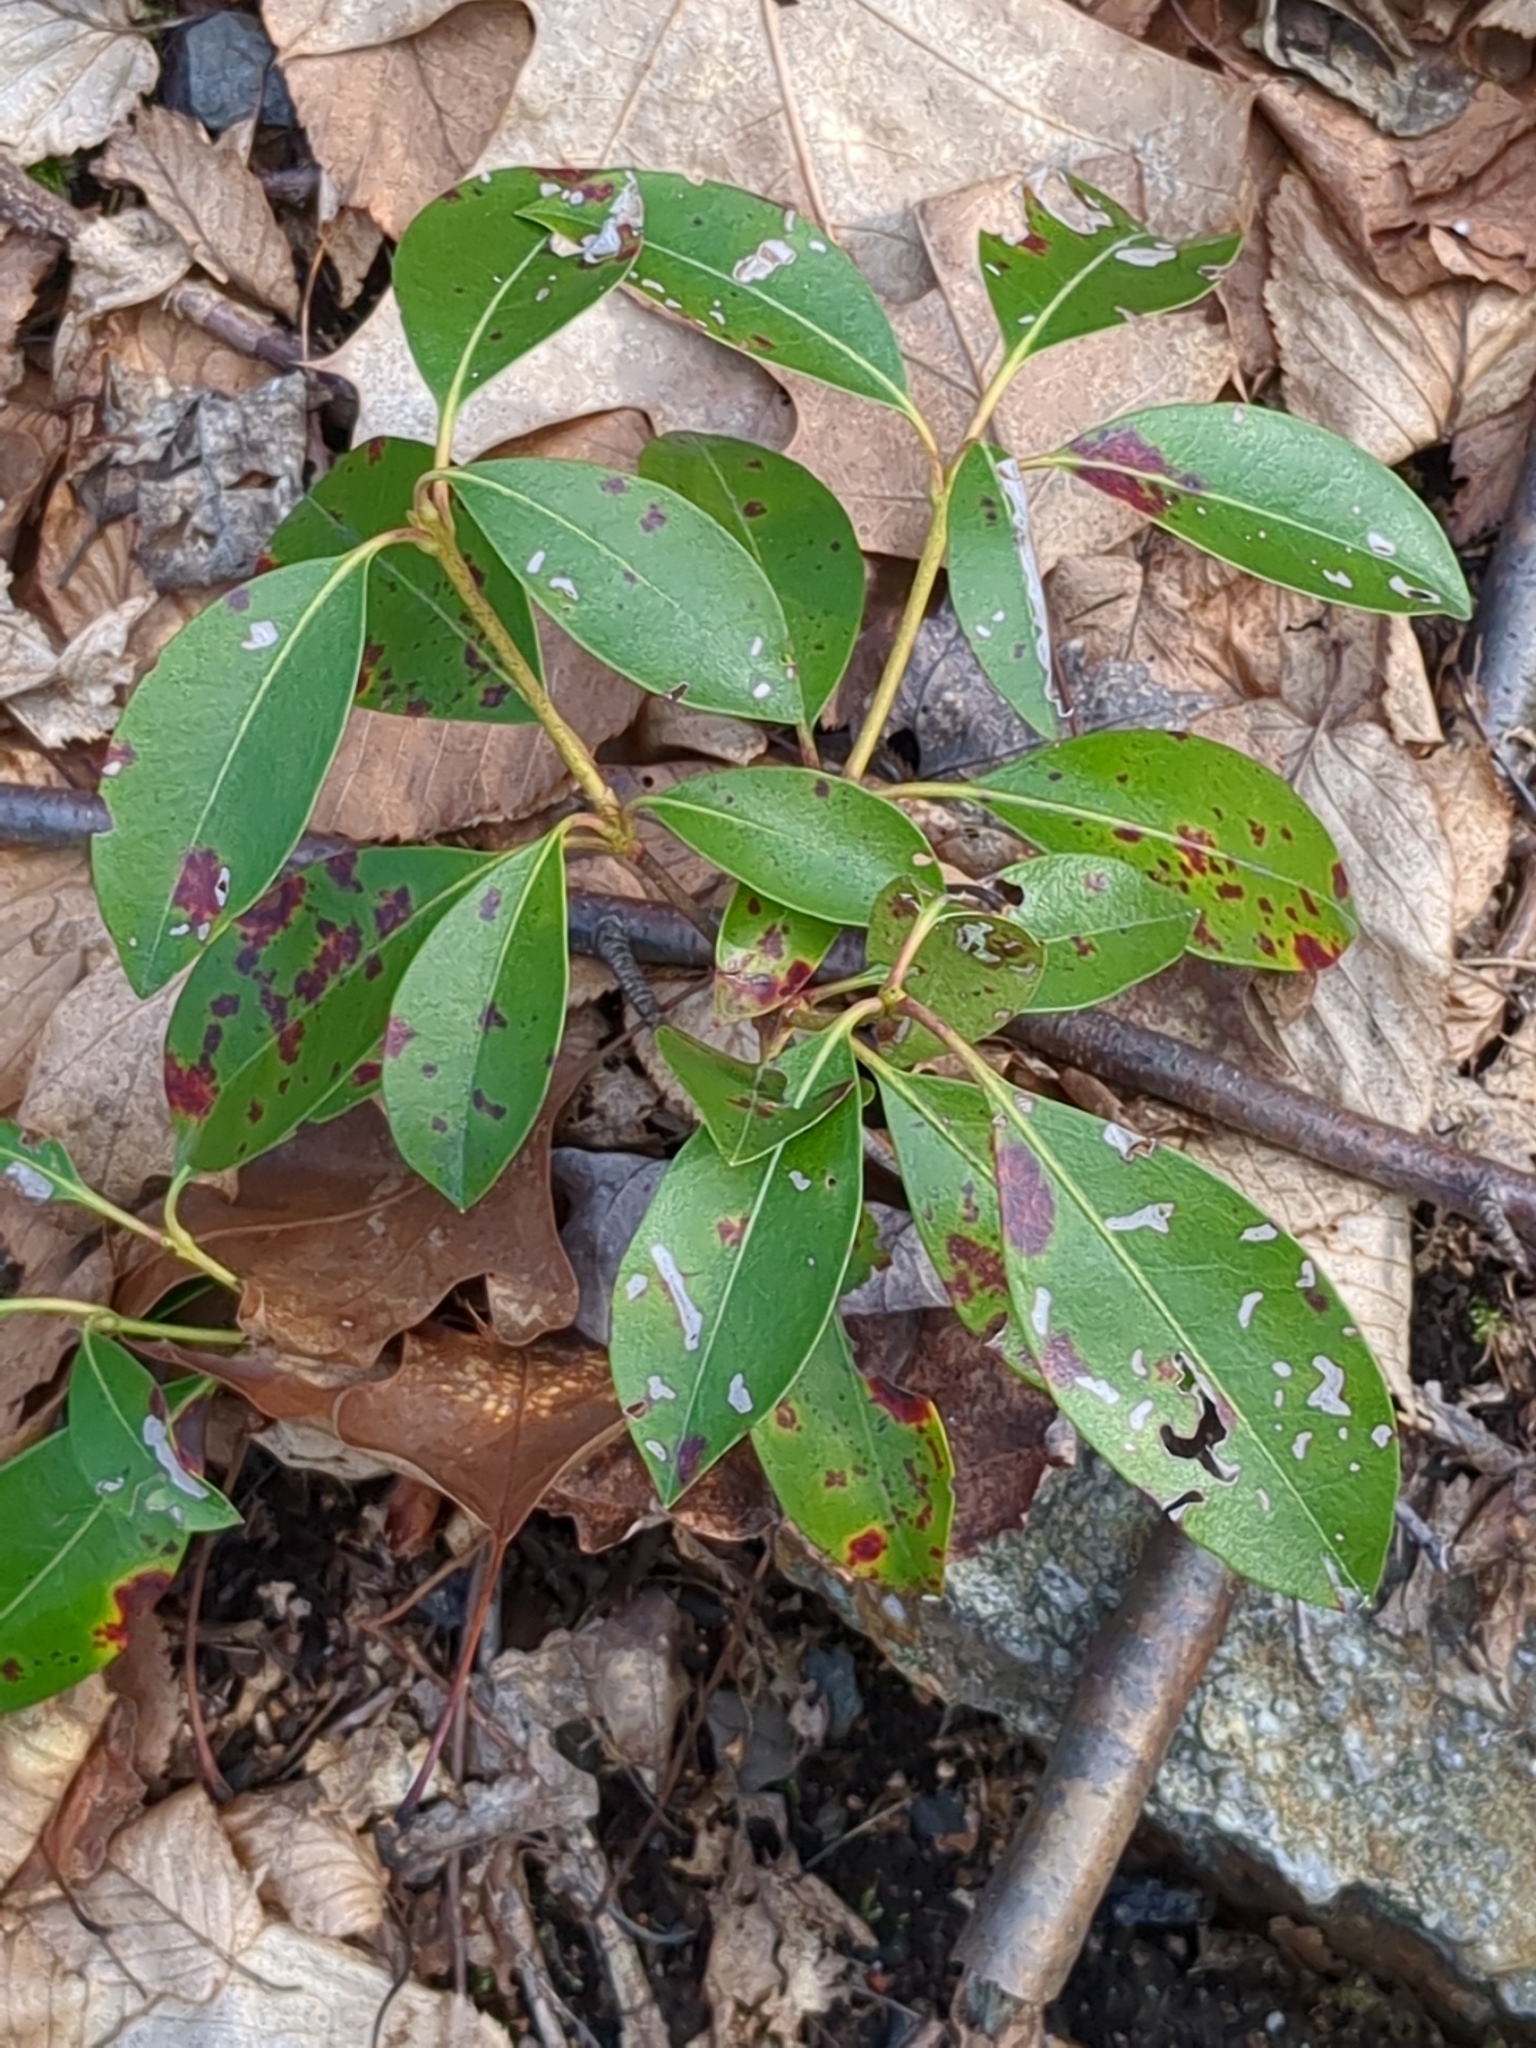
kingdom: Plantae
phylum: Tracheophyta
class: Magnoliopsida
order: Ericales
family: Ericaceae
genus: Kalmia
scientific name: Kalmia latifolia
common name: Mountain-laurel
